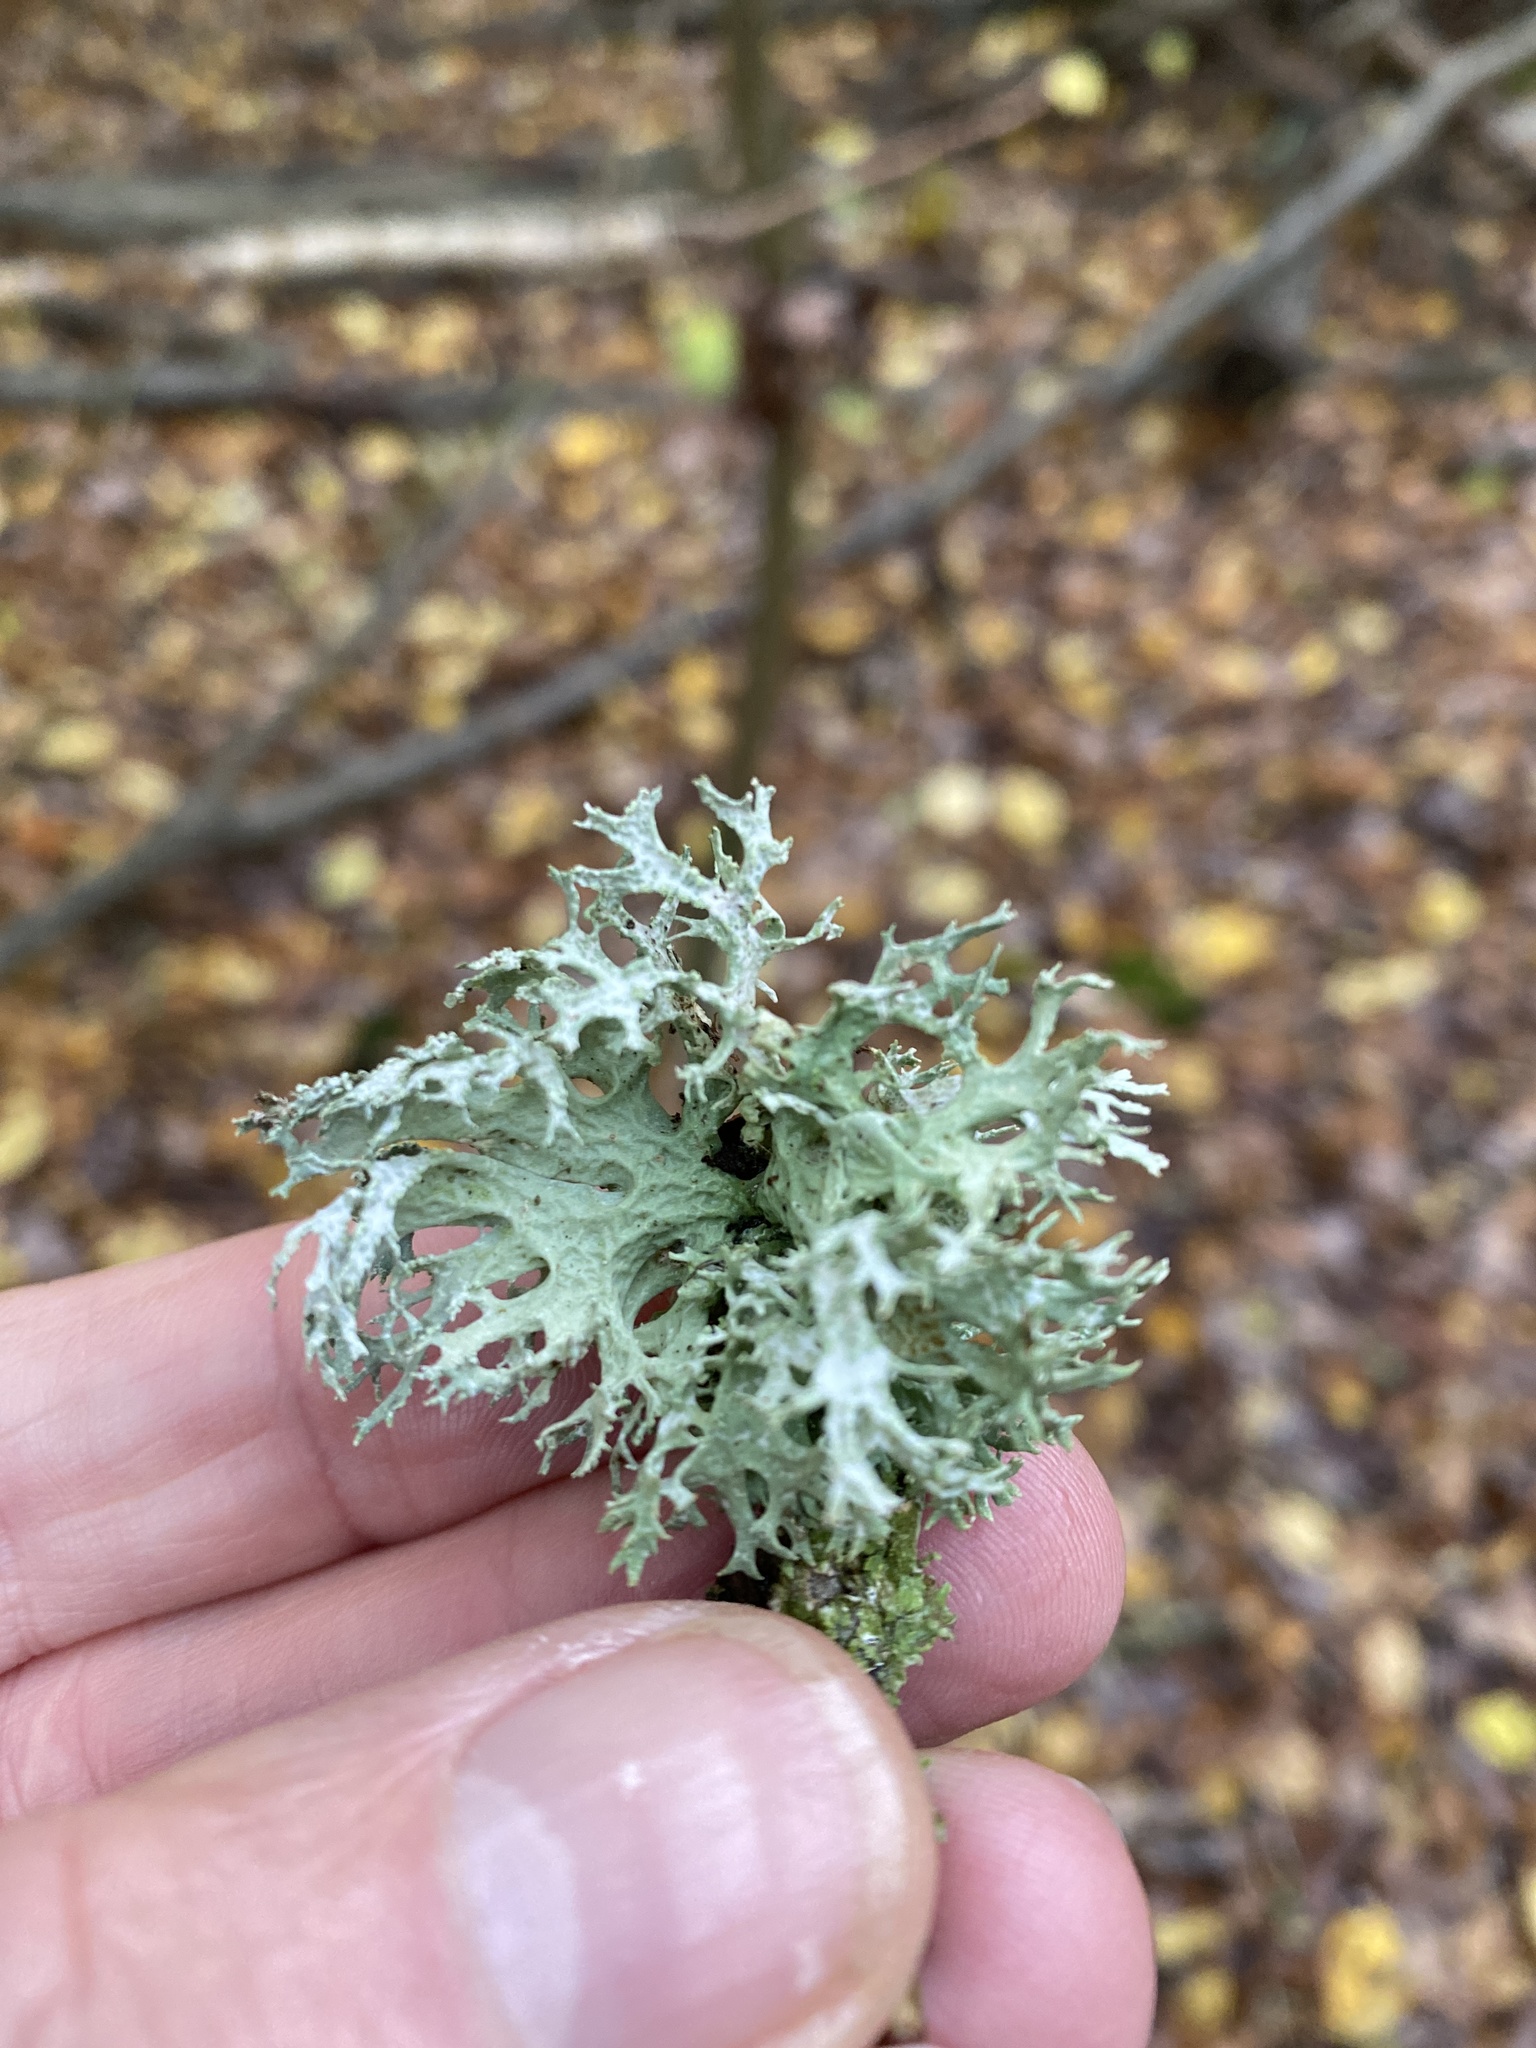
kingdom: Fungi
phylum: Ascomycota
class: Lecanoromycetes
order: Lecanorales
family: Parmeliaceae
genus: Evernia
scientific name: Evernia prunastri
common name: Oak moss
